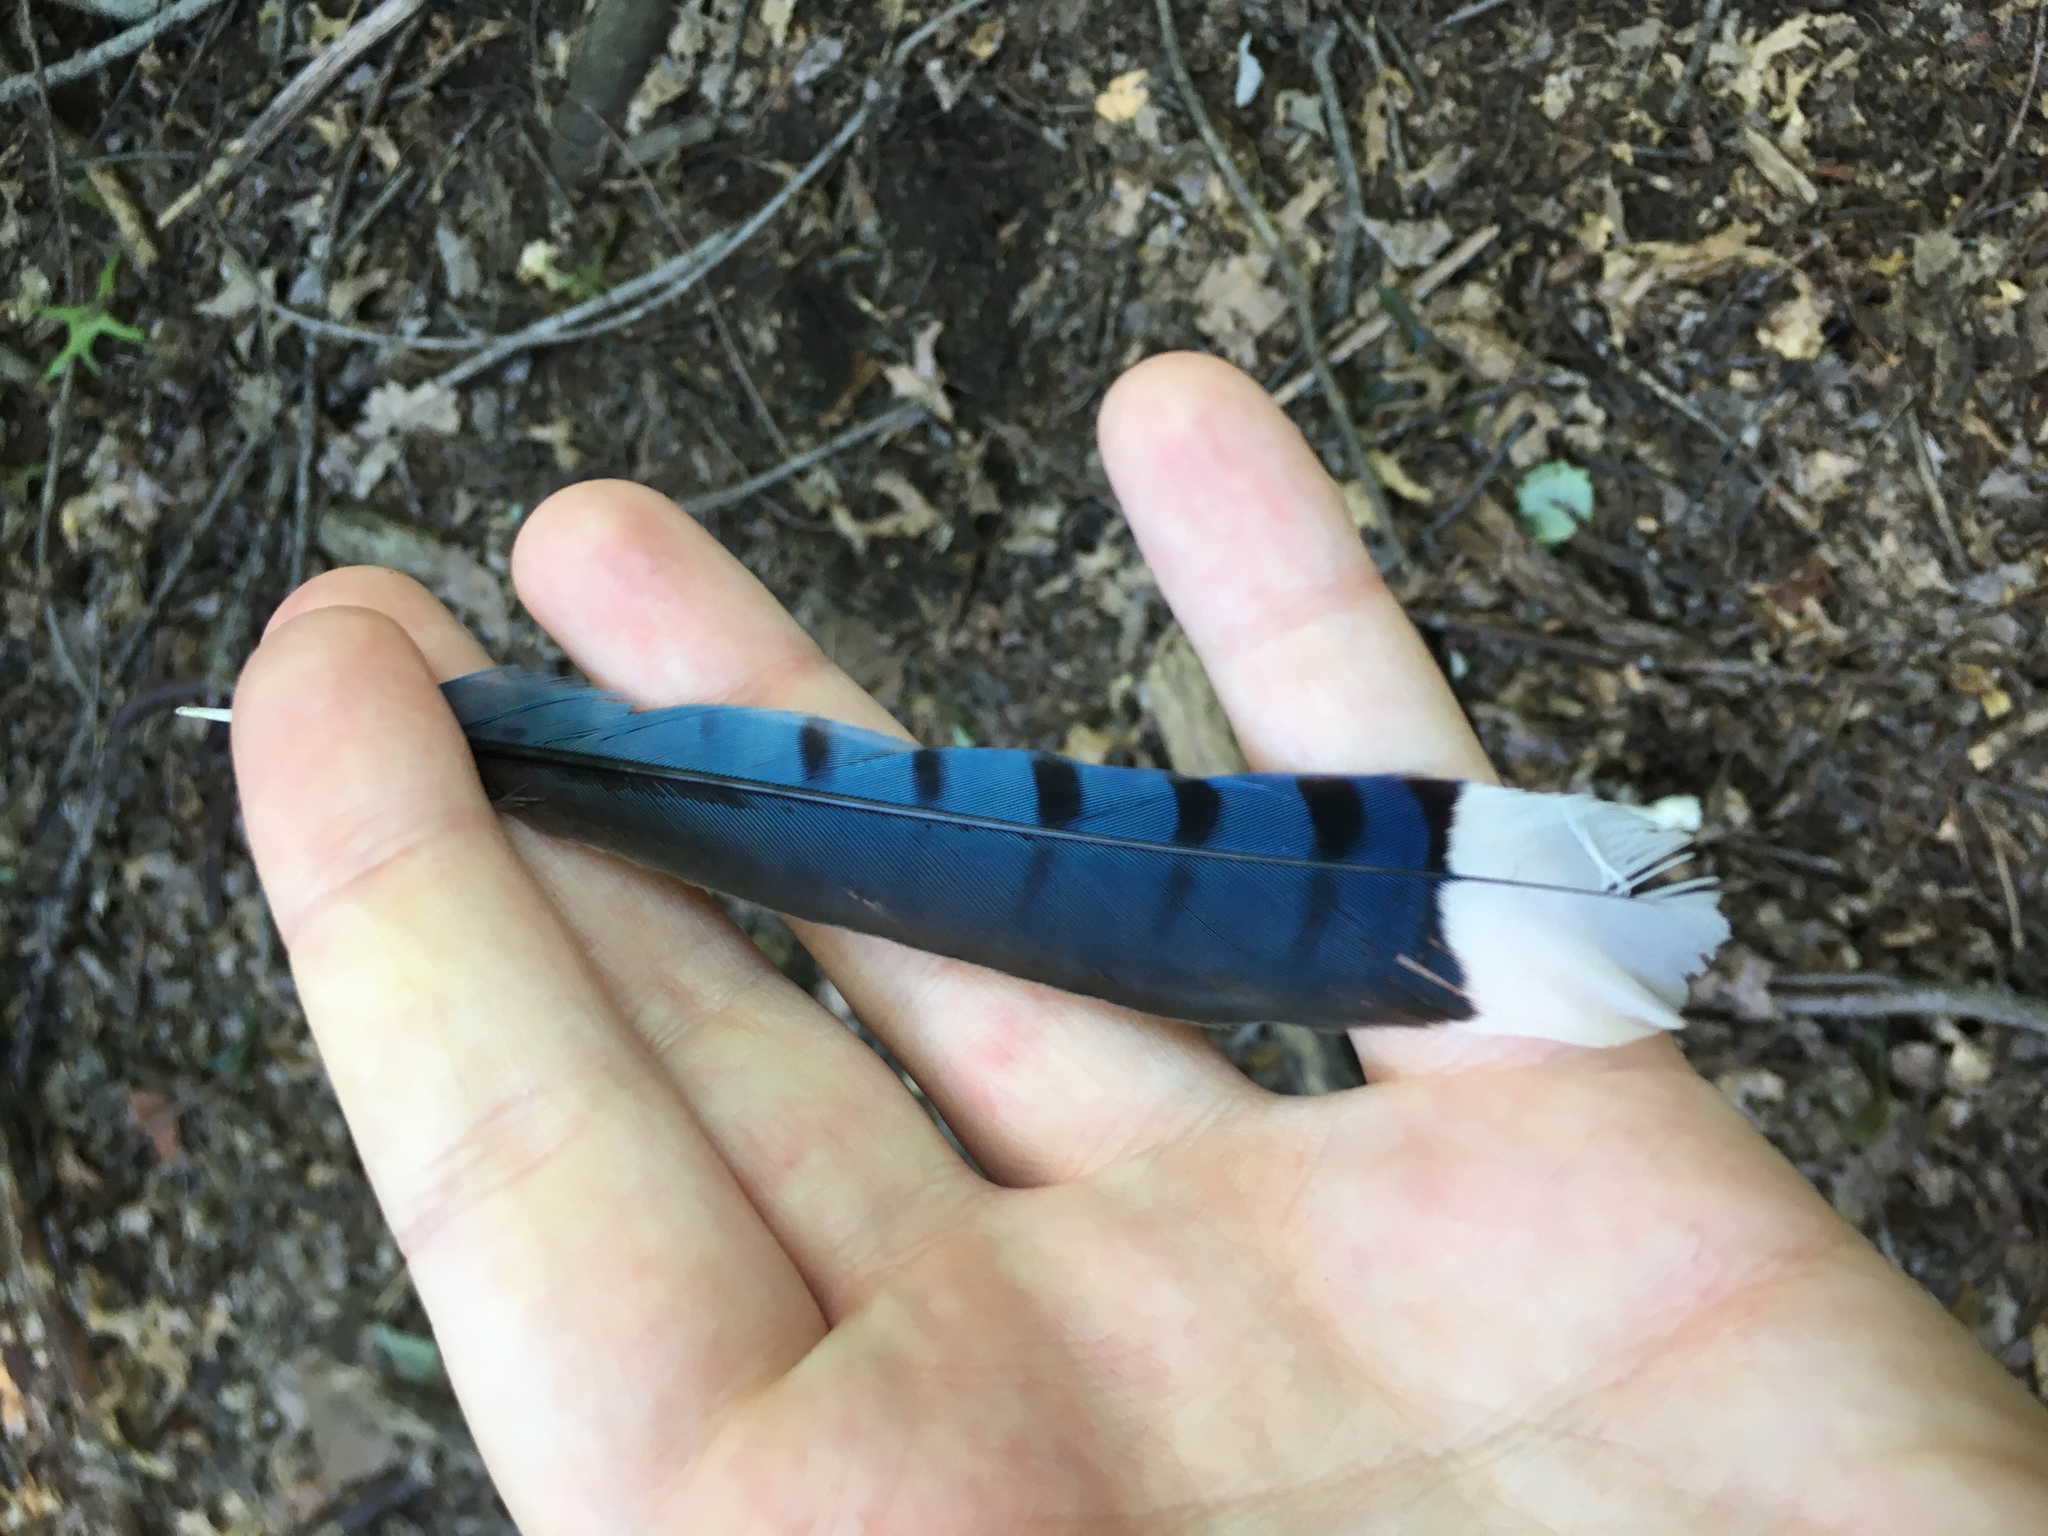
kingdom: Animalia
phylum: Chordata
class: Aves
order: Passeriformes
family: Corvidae
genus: Cyanocitta
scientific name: Cyanocitta cristata
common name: Blue jay
